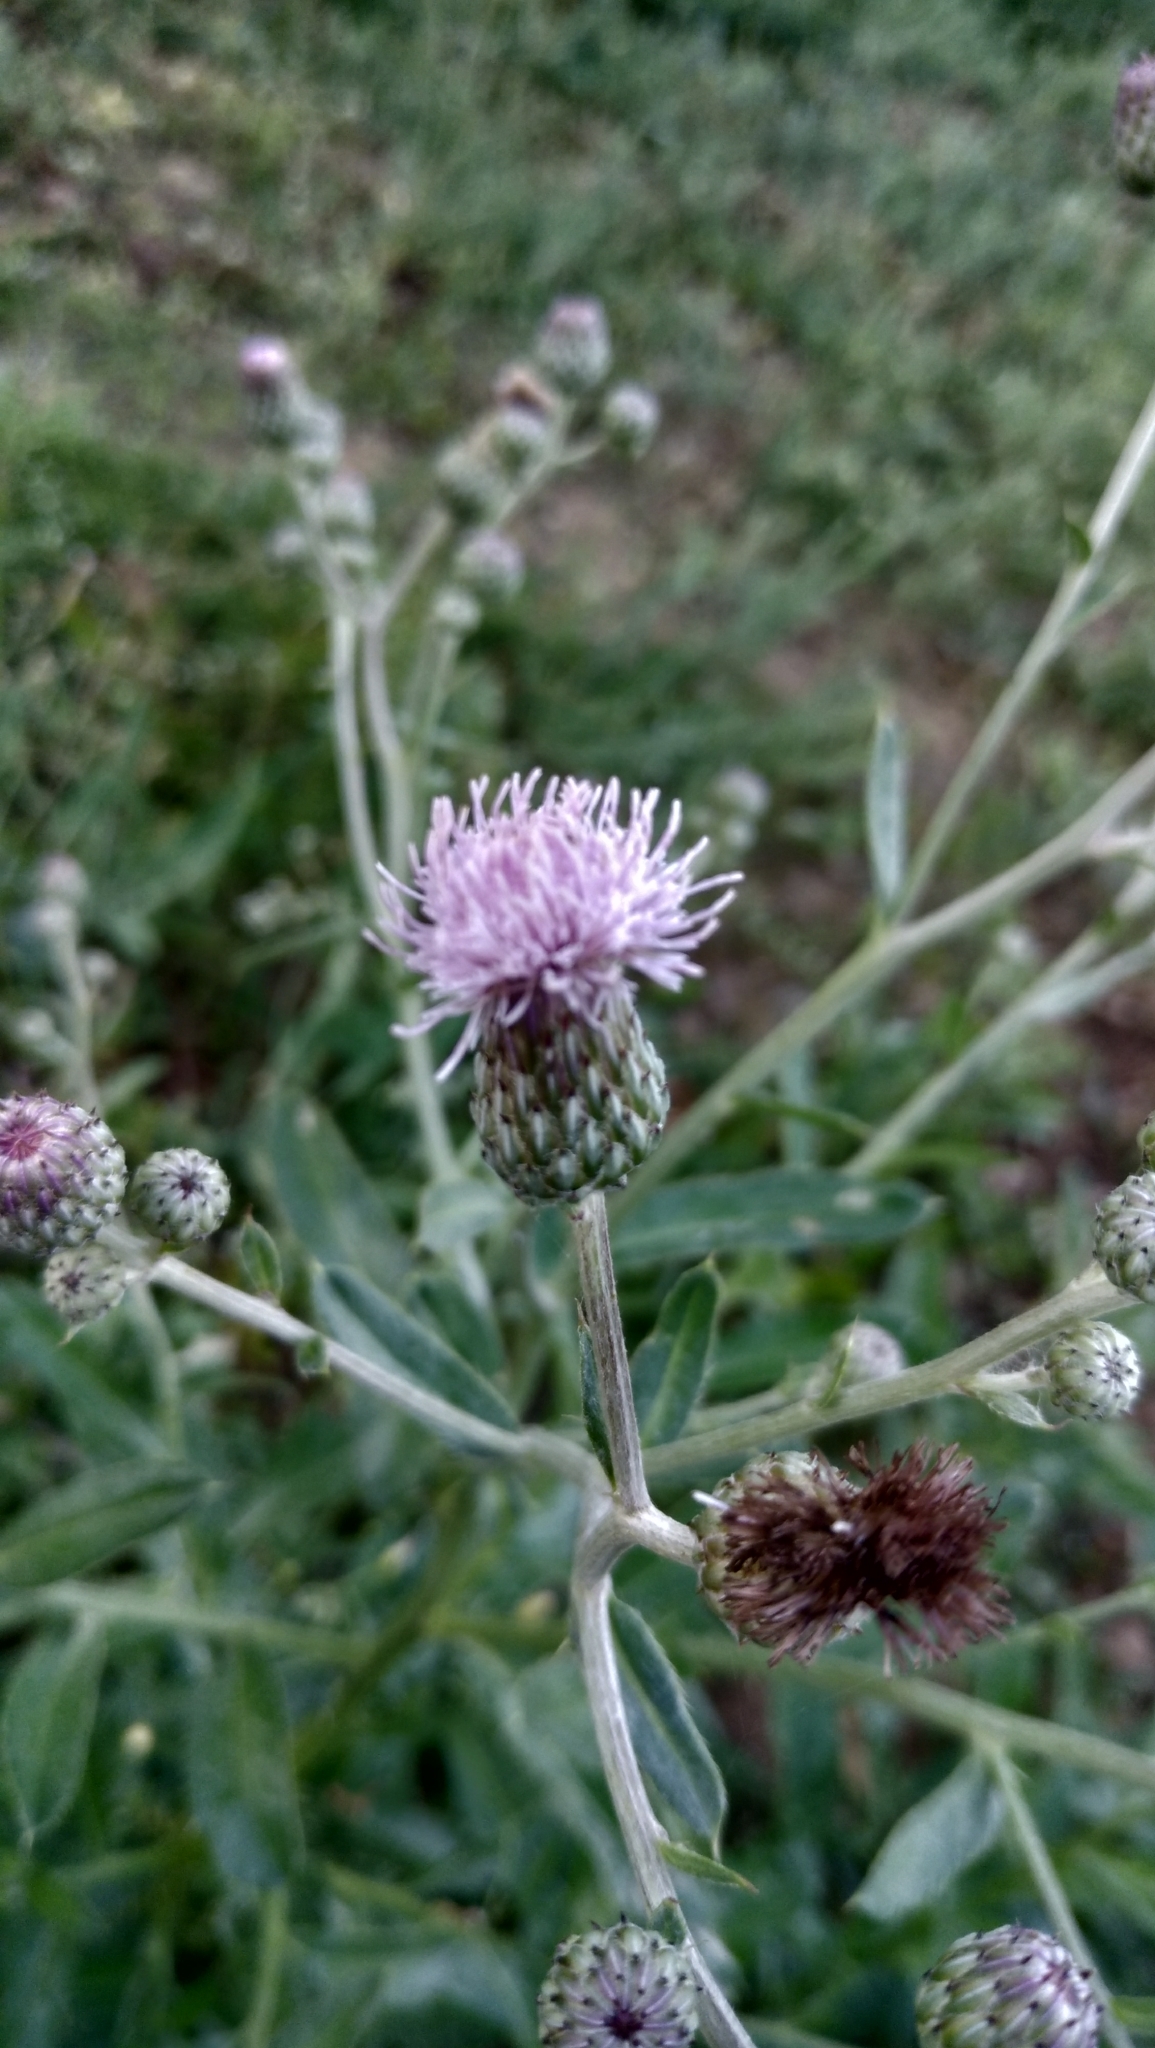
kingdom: Plantae
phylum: Tracheophyta
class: Magnoliopsida
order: Asterales
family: Asteraceae
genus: Cirsium
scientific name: Cirsium arvense
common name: Creeping thistle
